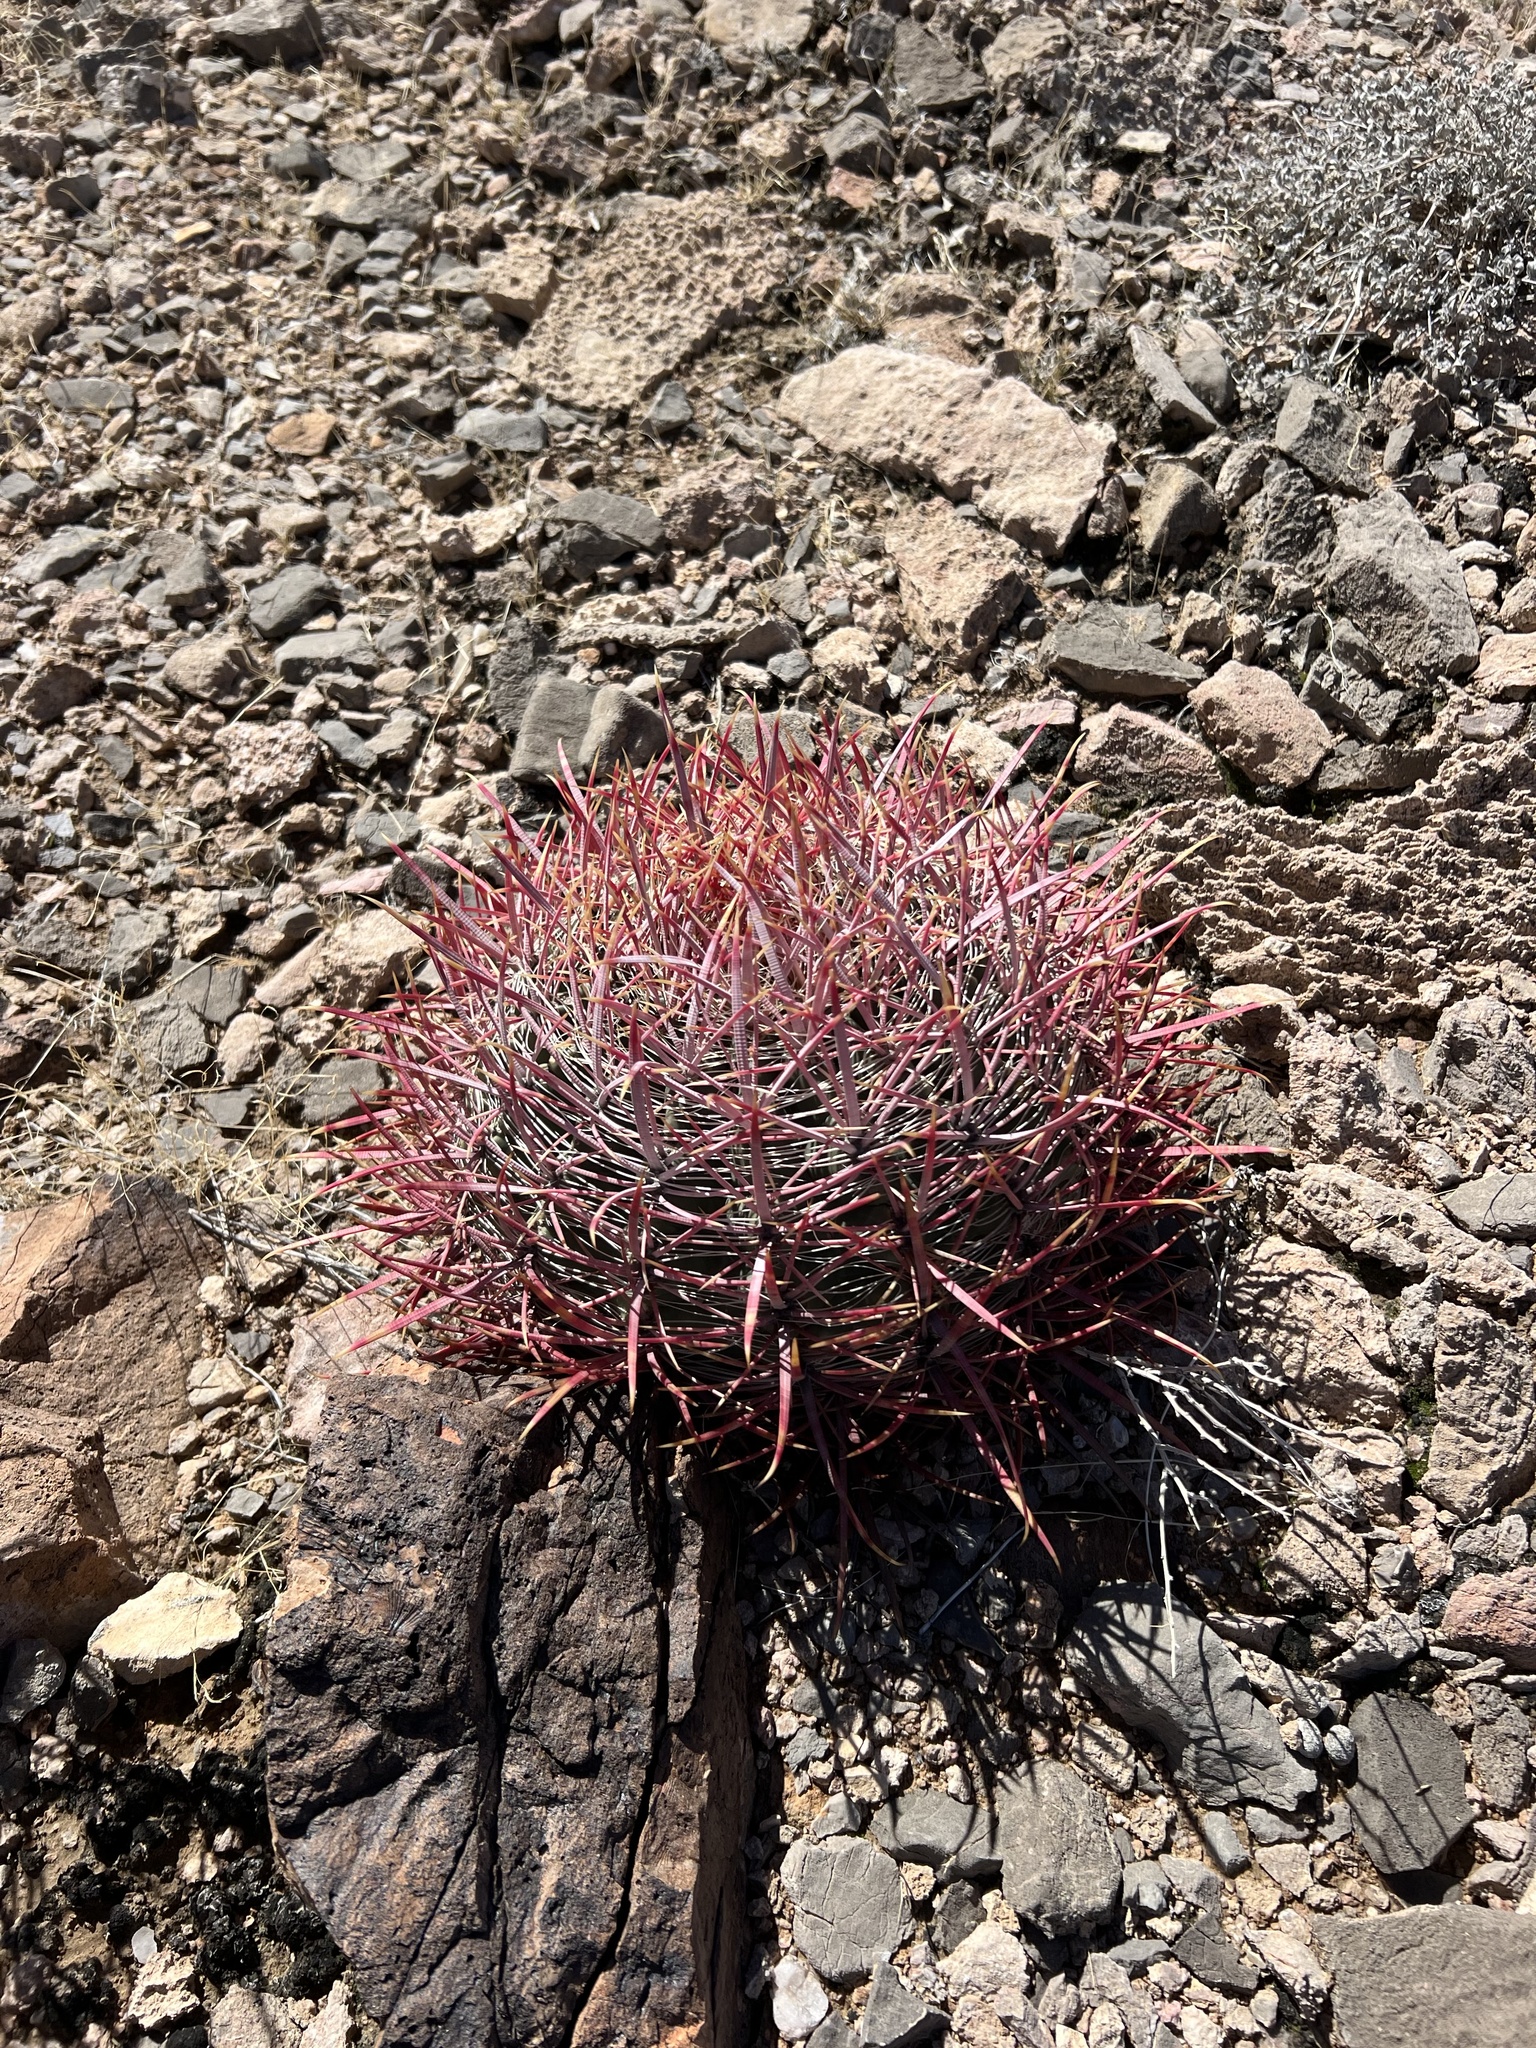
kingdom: Plantae
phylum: Tracheophyta
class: Magnoliopsida
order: Caryophyllales
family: Cactaceae
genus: Ferocactus
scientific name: Ferocactus cylindraceus
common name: California barrel cactus
